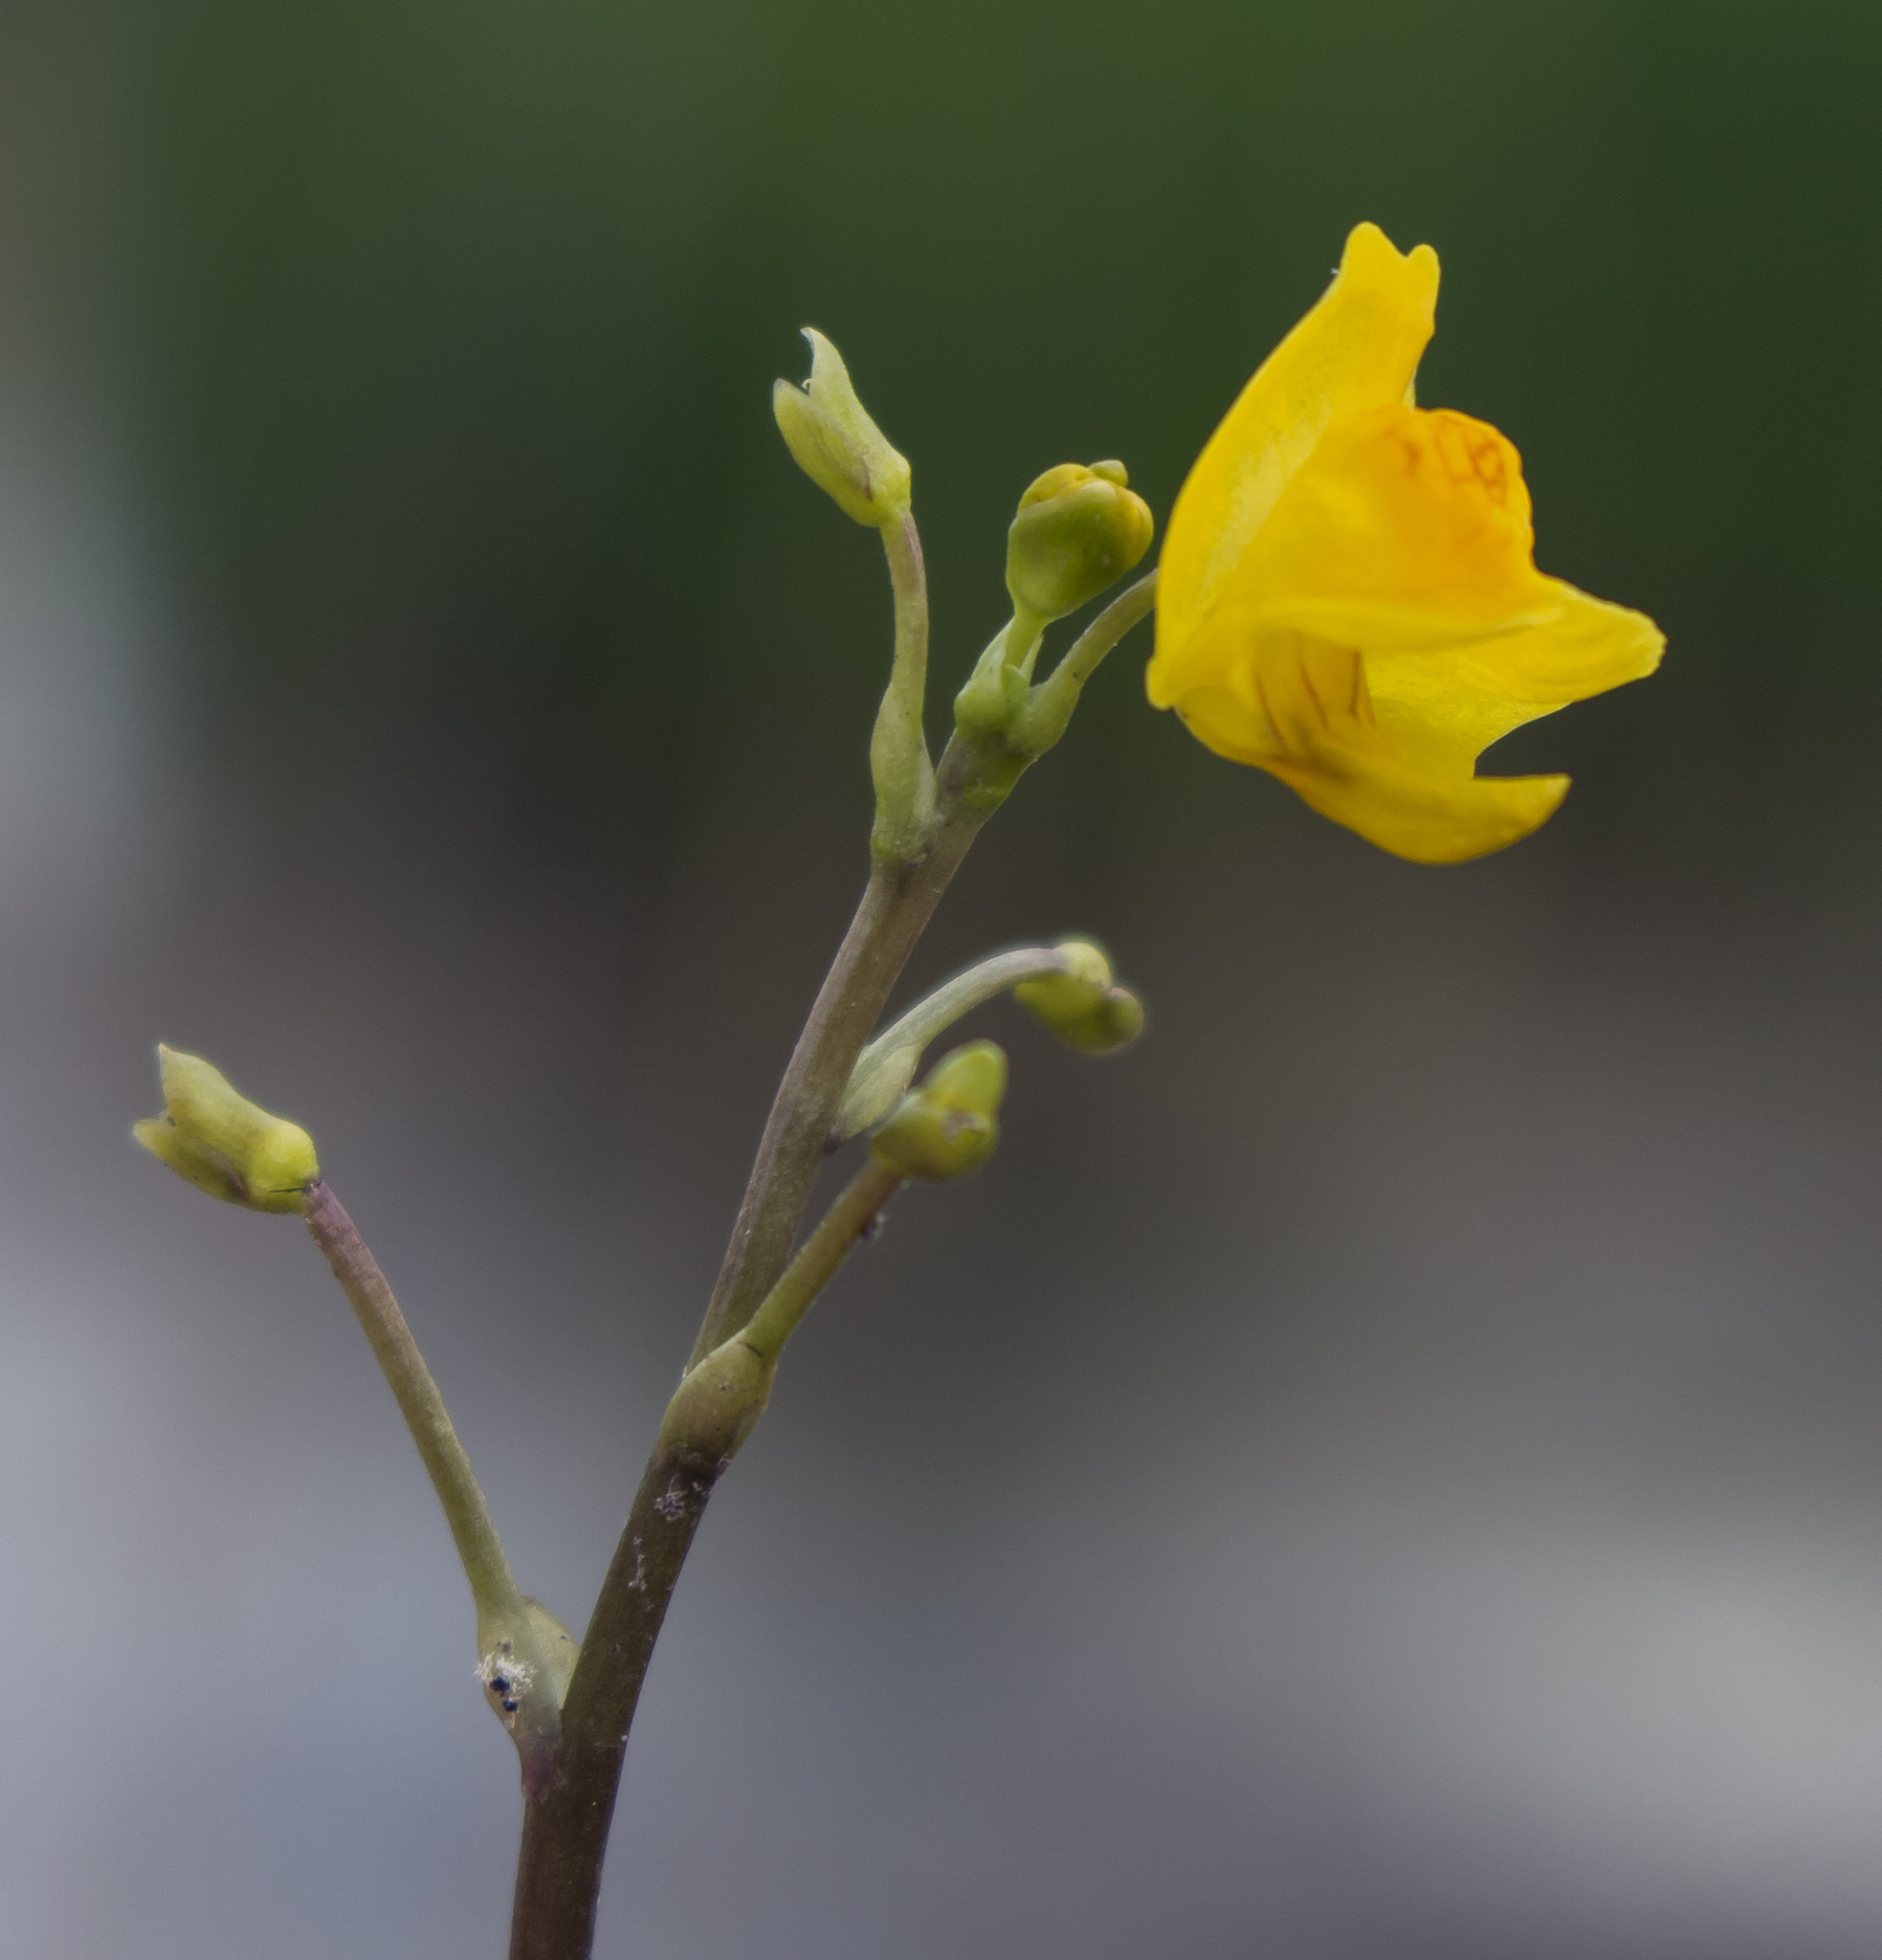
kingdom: Plantae
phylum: Tracheophyta
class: Magnoliopsida
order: Lamiales
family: Lentibulariaceae
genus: Utricularia
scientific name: Utricularia macrorhiza
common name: Common bladderwort
